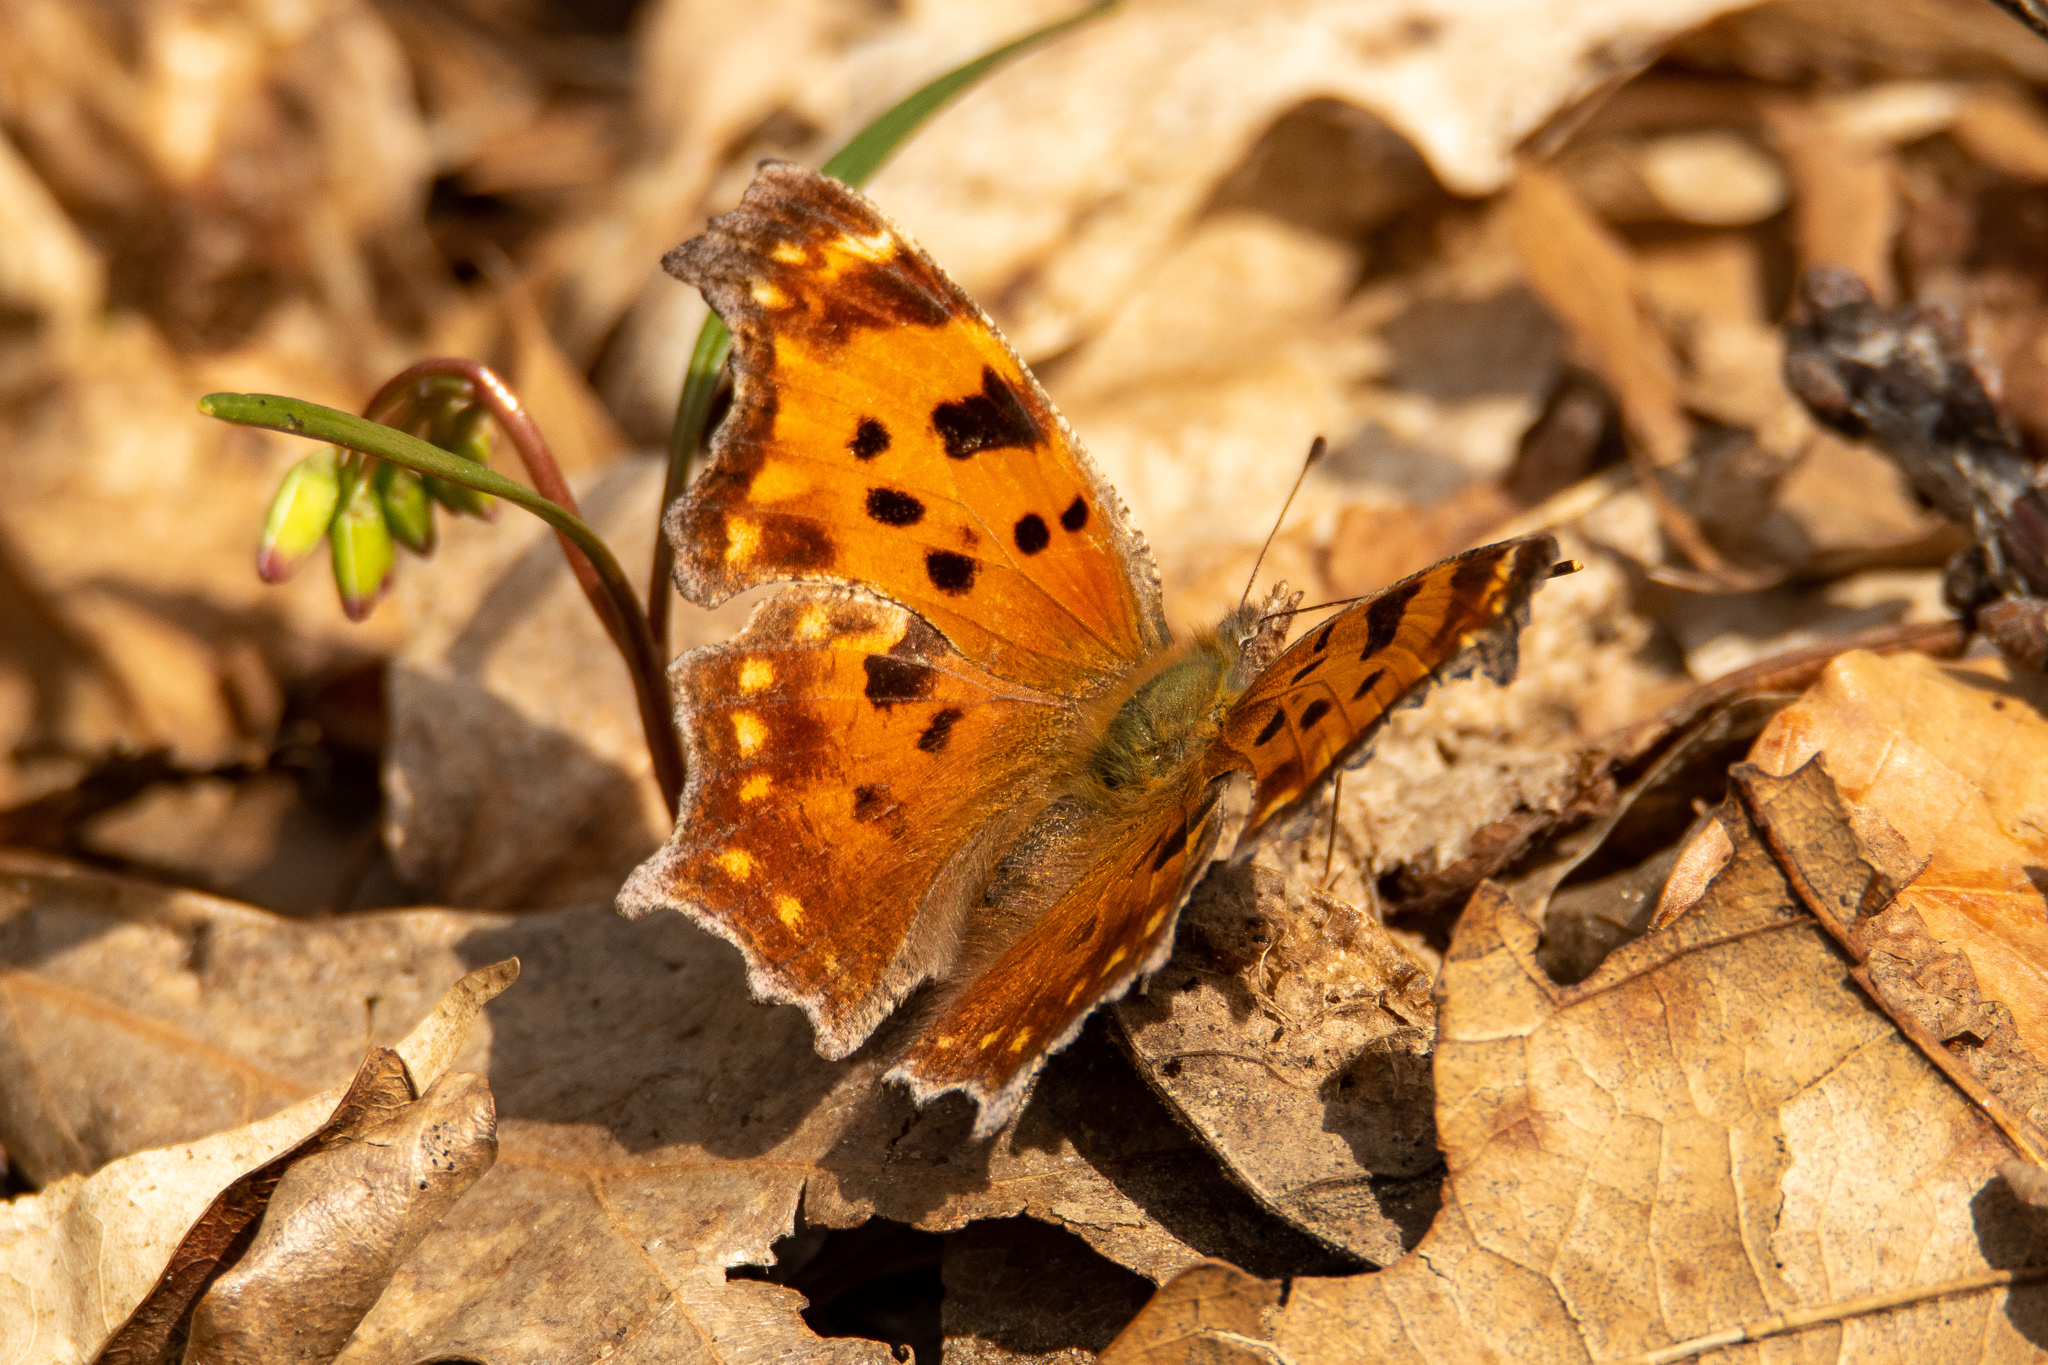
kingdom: Animalia
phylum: Arthropoda
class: Insecta
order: Lepidoptera
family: Nymphalidae
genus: Polygonia
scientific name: Polygonia comma
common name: Eastern comma
